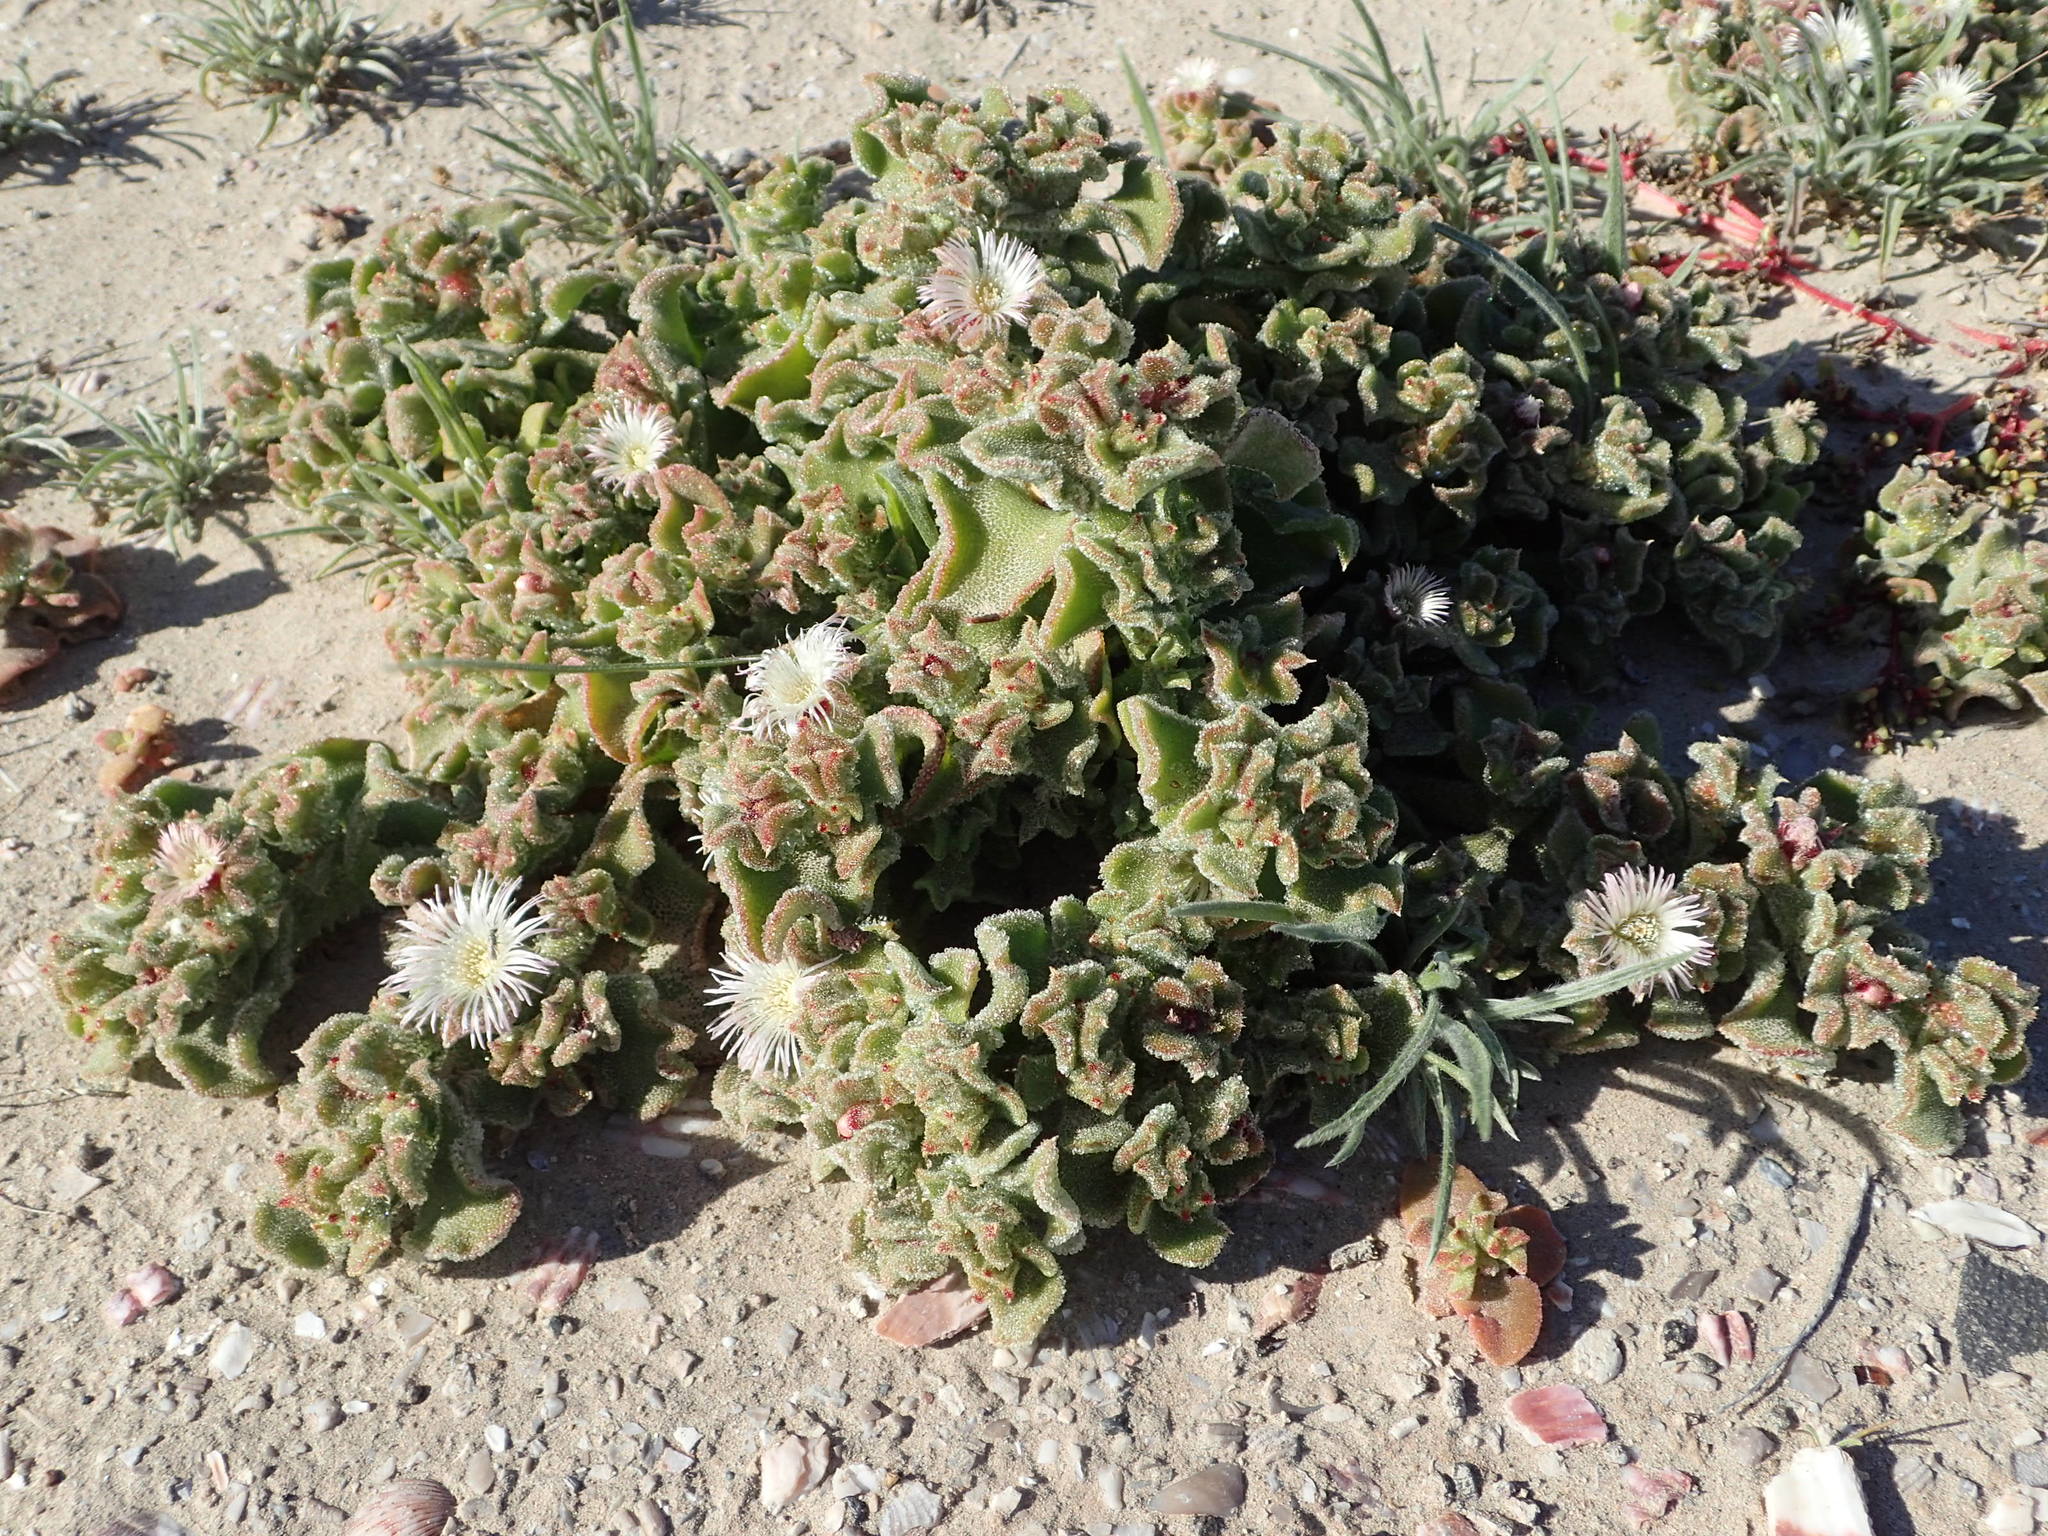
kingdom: Plantae
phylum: Tracheophyta
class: Magnoliopsida
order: Caryophyllales
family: Aizoaceae
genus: Mesembryanthemum
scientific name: Mesembryanthemum crystallinum
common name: Common iceplant
